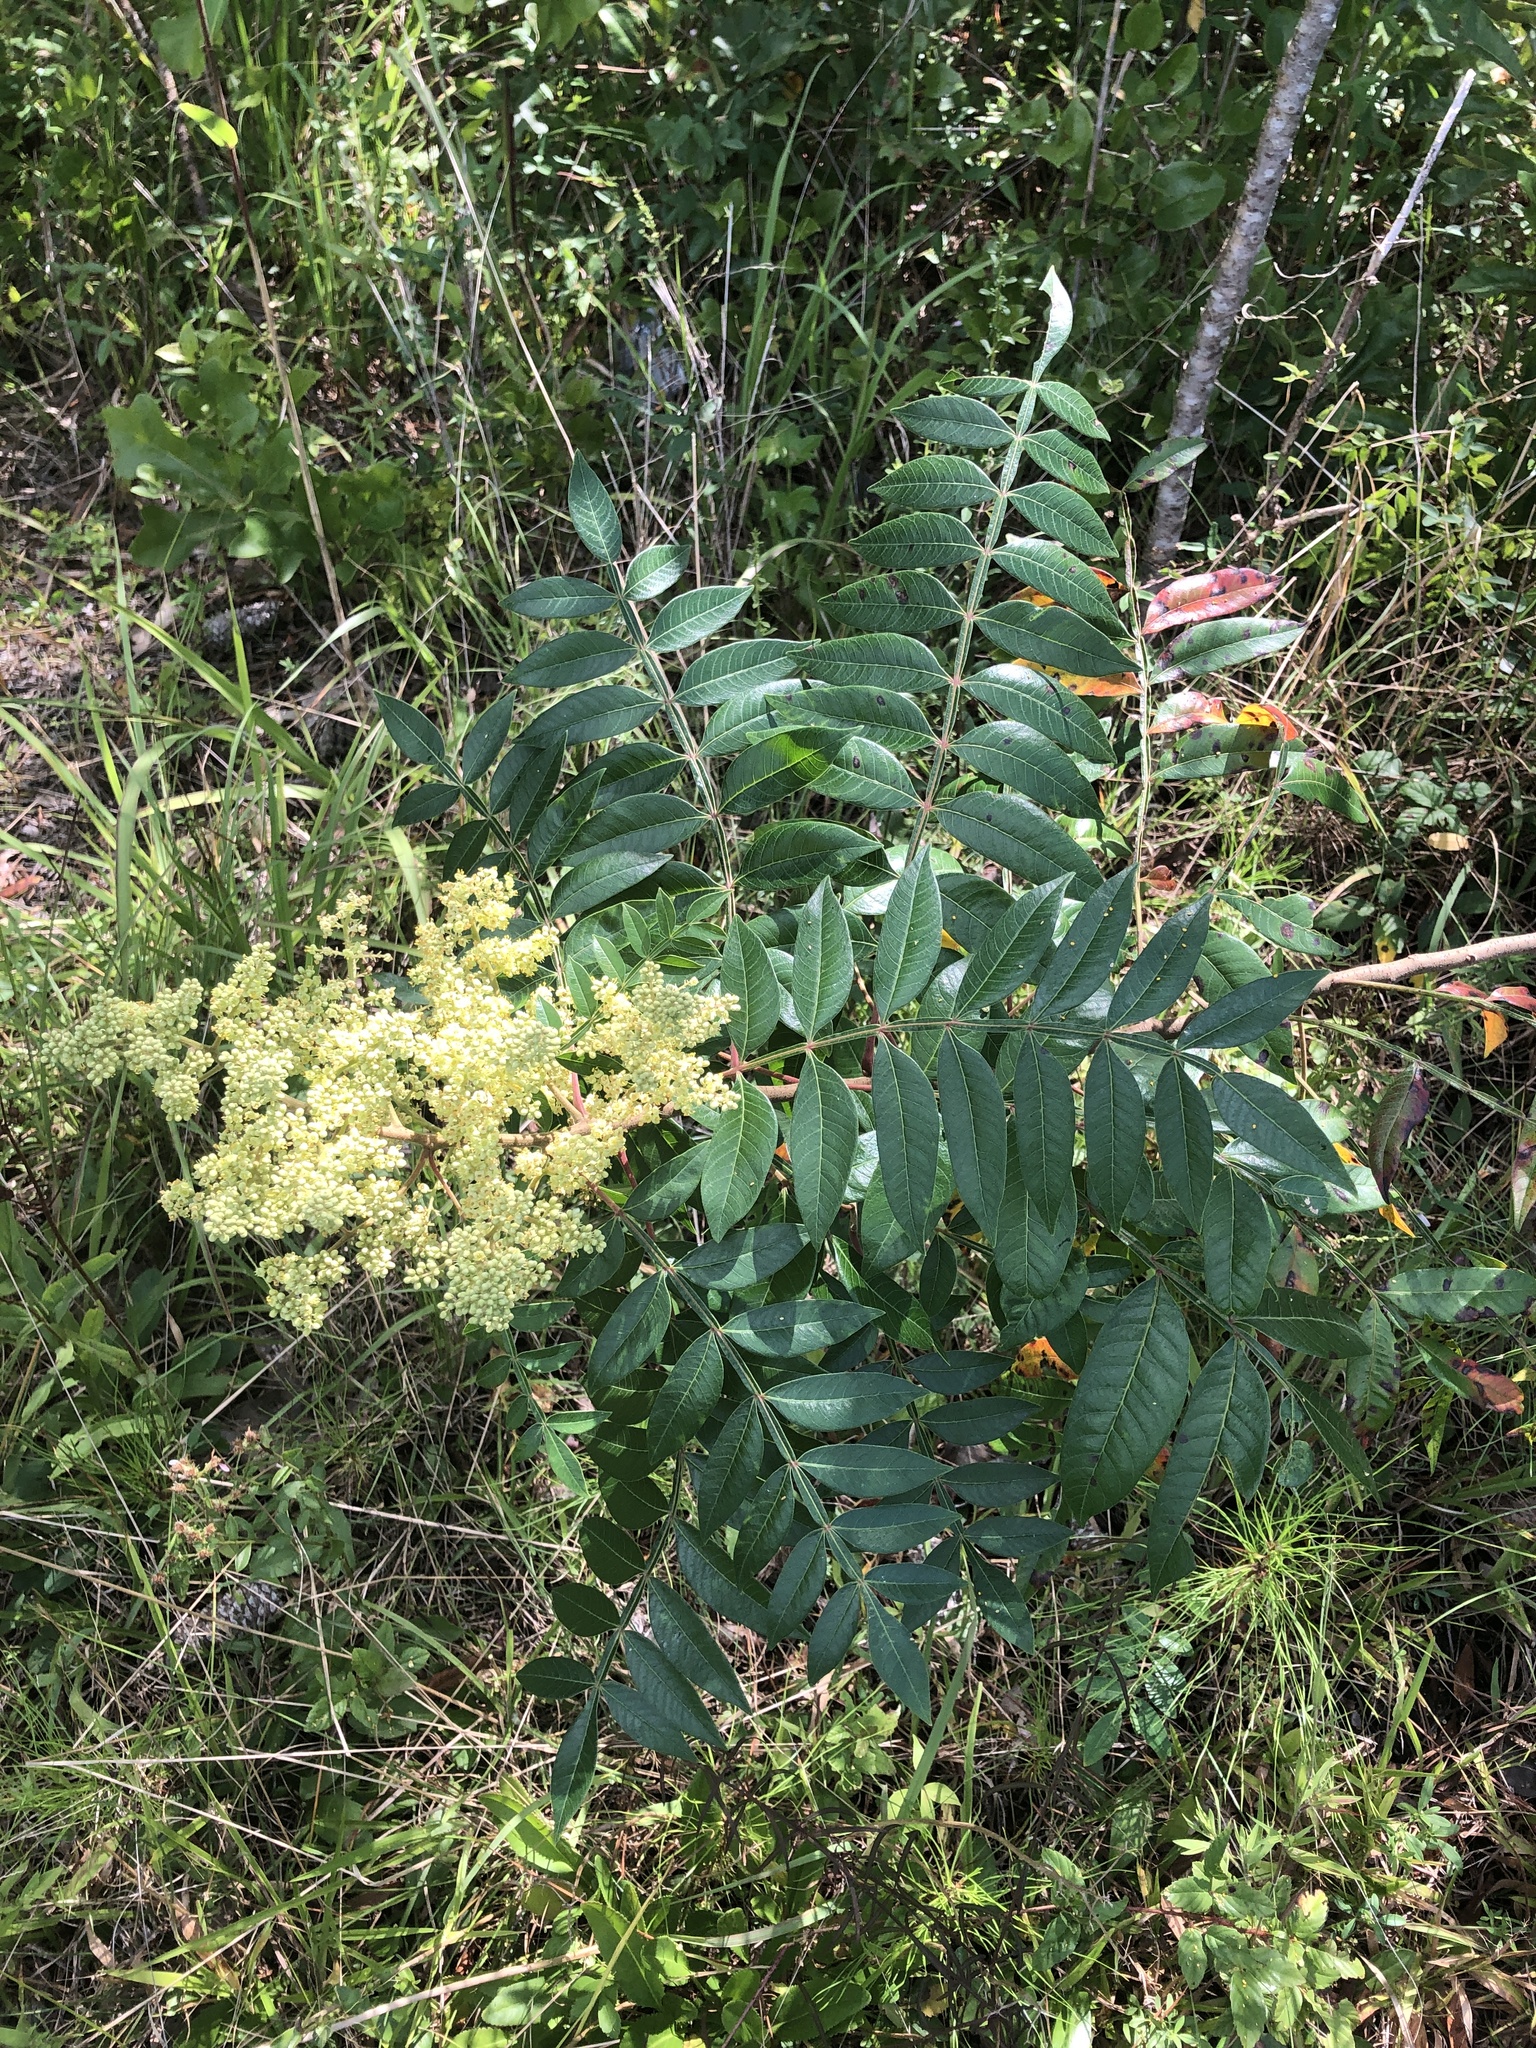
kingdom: Plantae
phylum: Tracheophyta
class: Magnoliopsida
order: Sapindales
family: Anacardiaceae
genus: Rhus
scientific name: Rhus copallina
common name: Shining sumac
